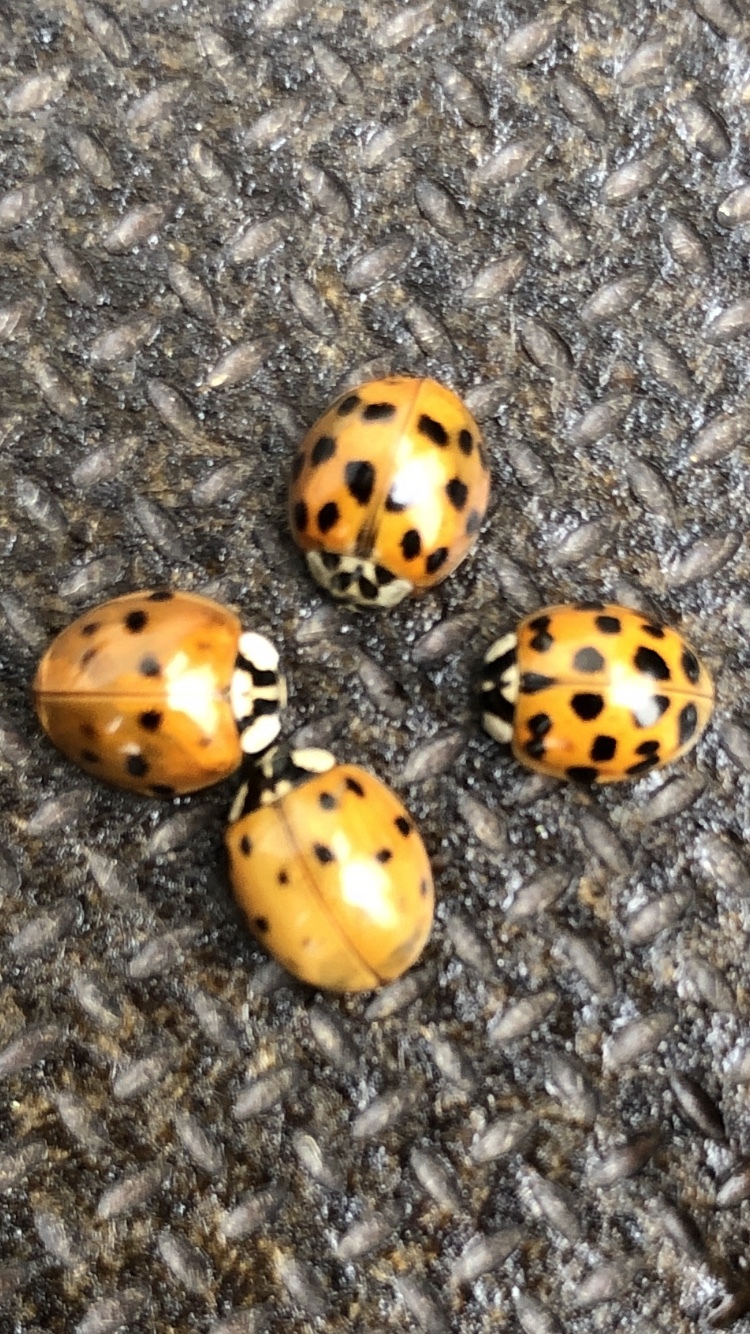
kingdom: Animalia
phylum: Arthropoda
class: Insecta
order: Coleoptera
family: Coccinellidae
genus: Harmonia
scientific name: Harmonia axyridis
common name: Harlequin ladybird
